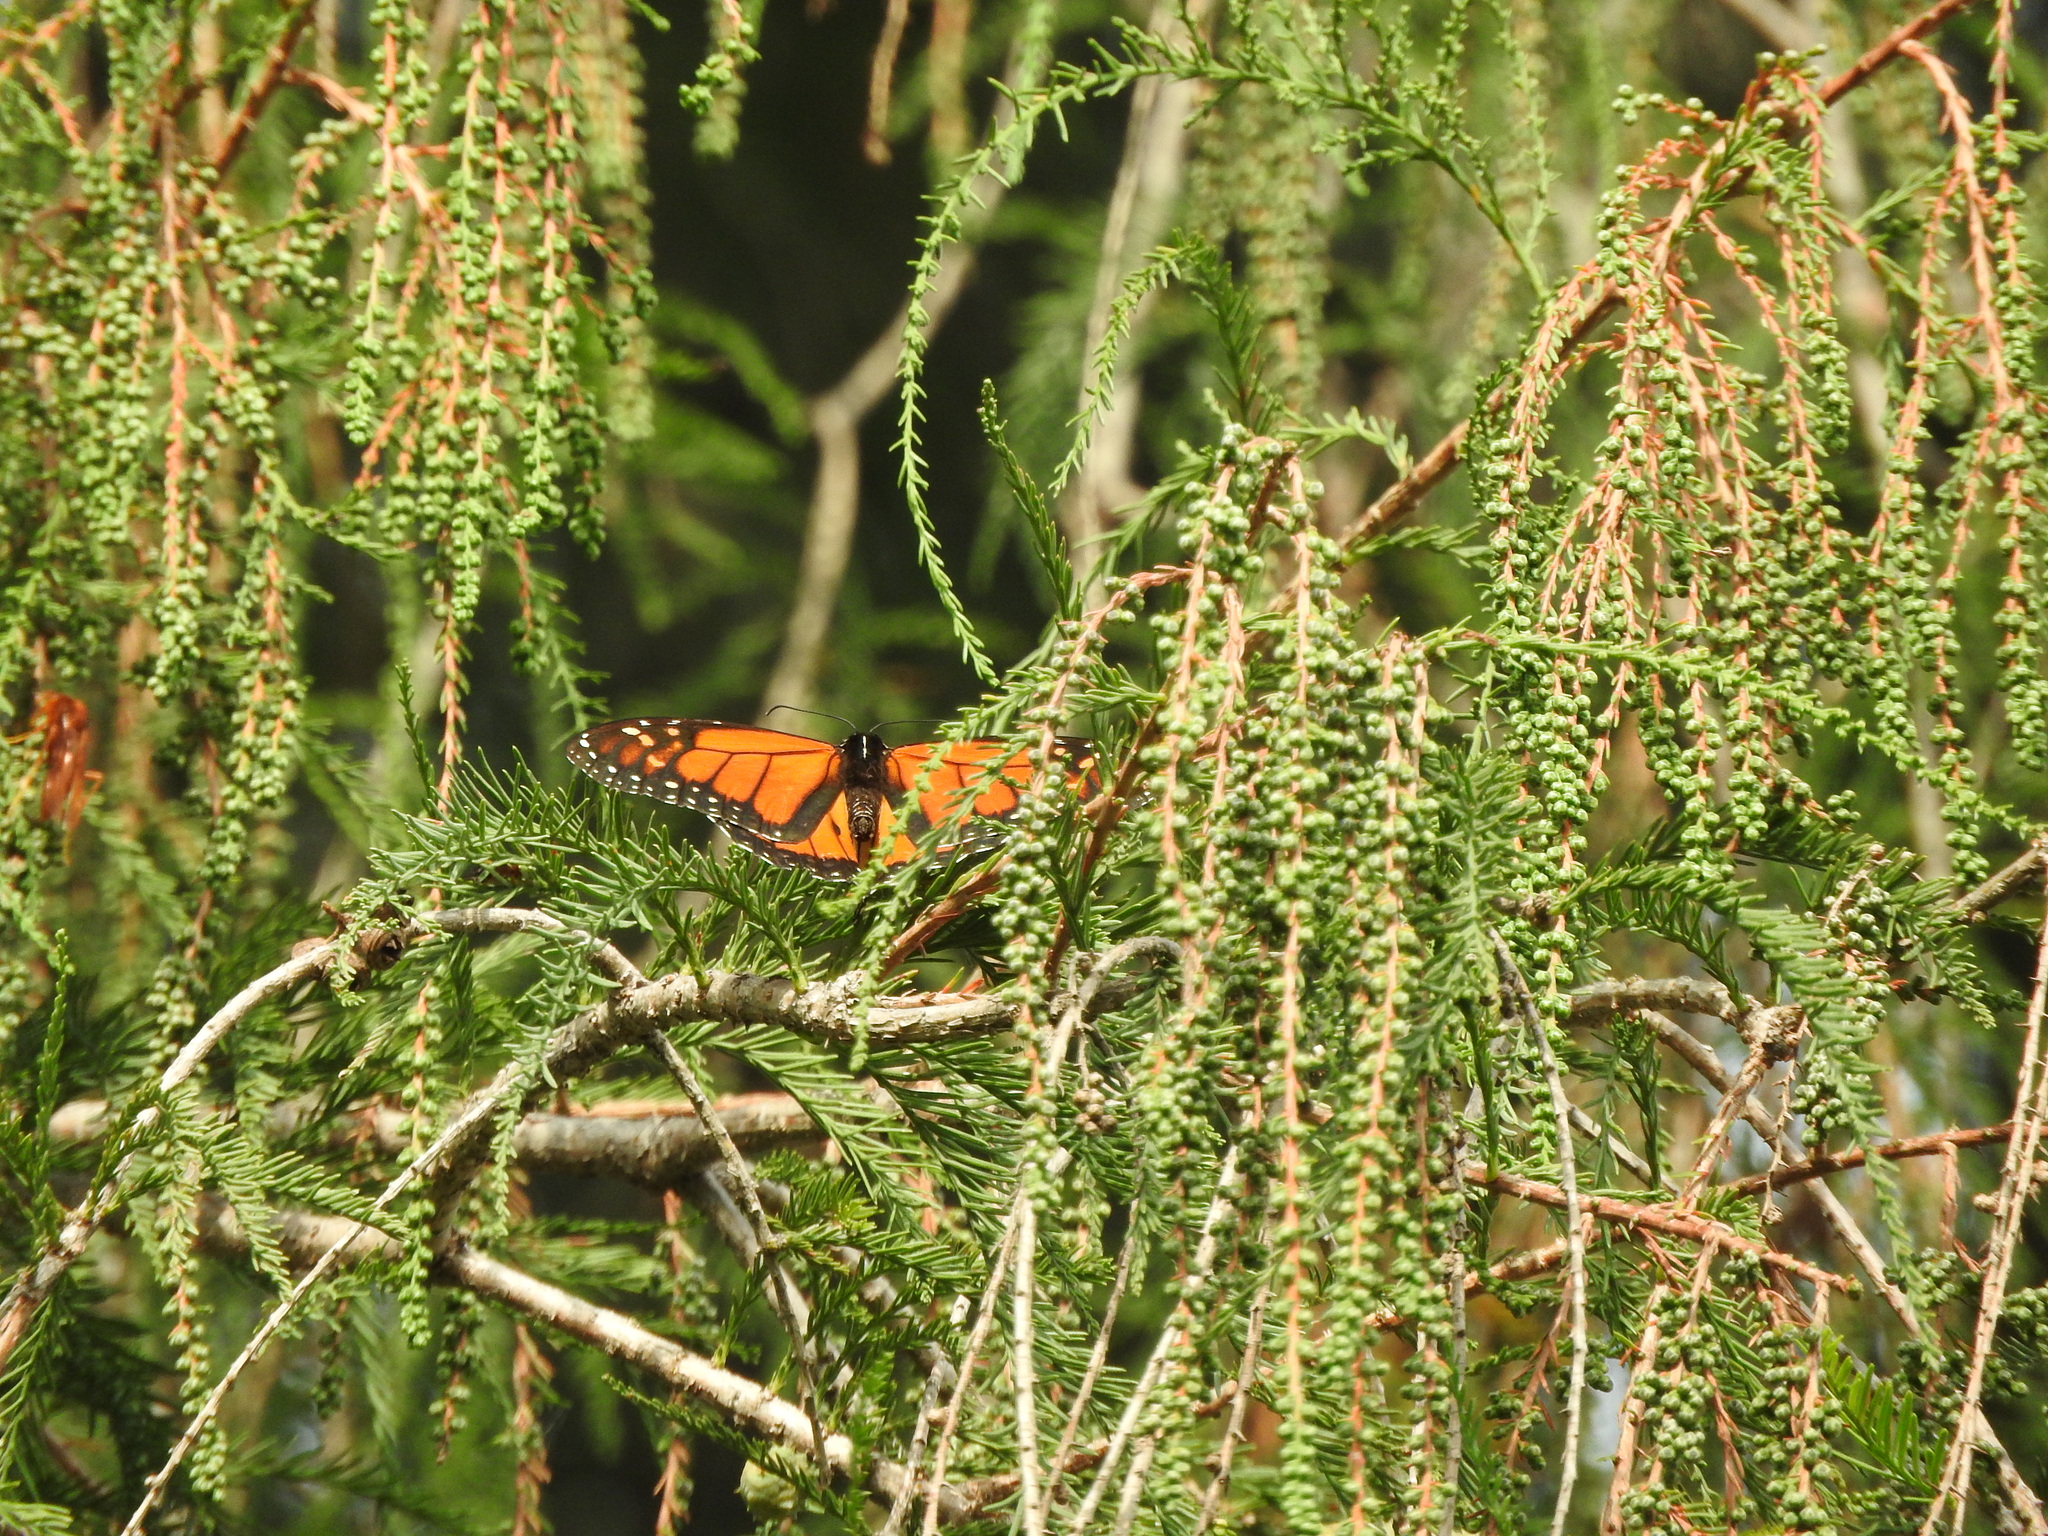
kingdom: Animalia
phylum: Arthropoda
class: Insecta
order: Lepidoptera
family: Nymphalidae
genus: Danaus
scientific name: Danaus plexippus
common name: Monarch
